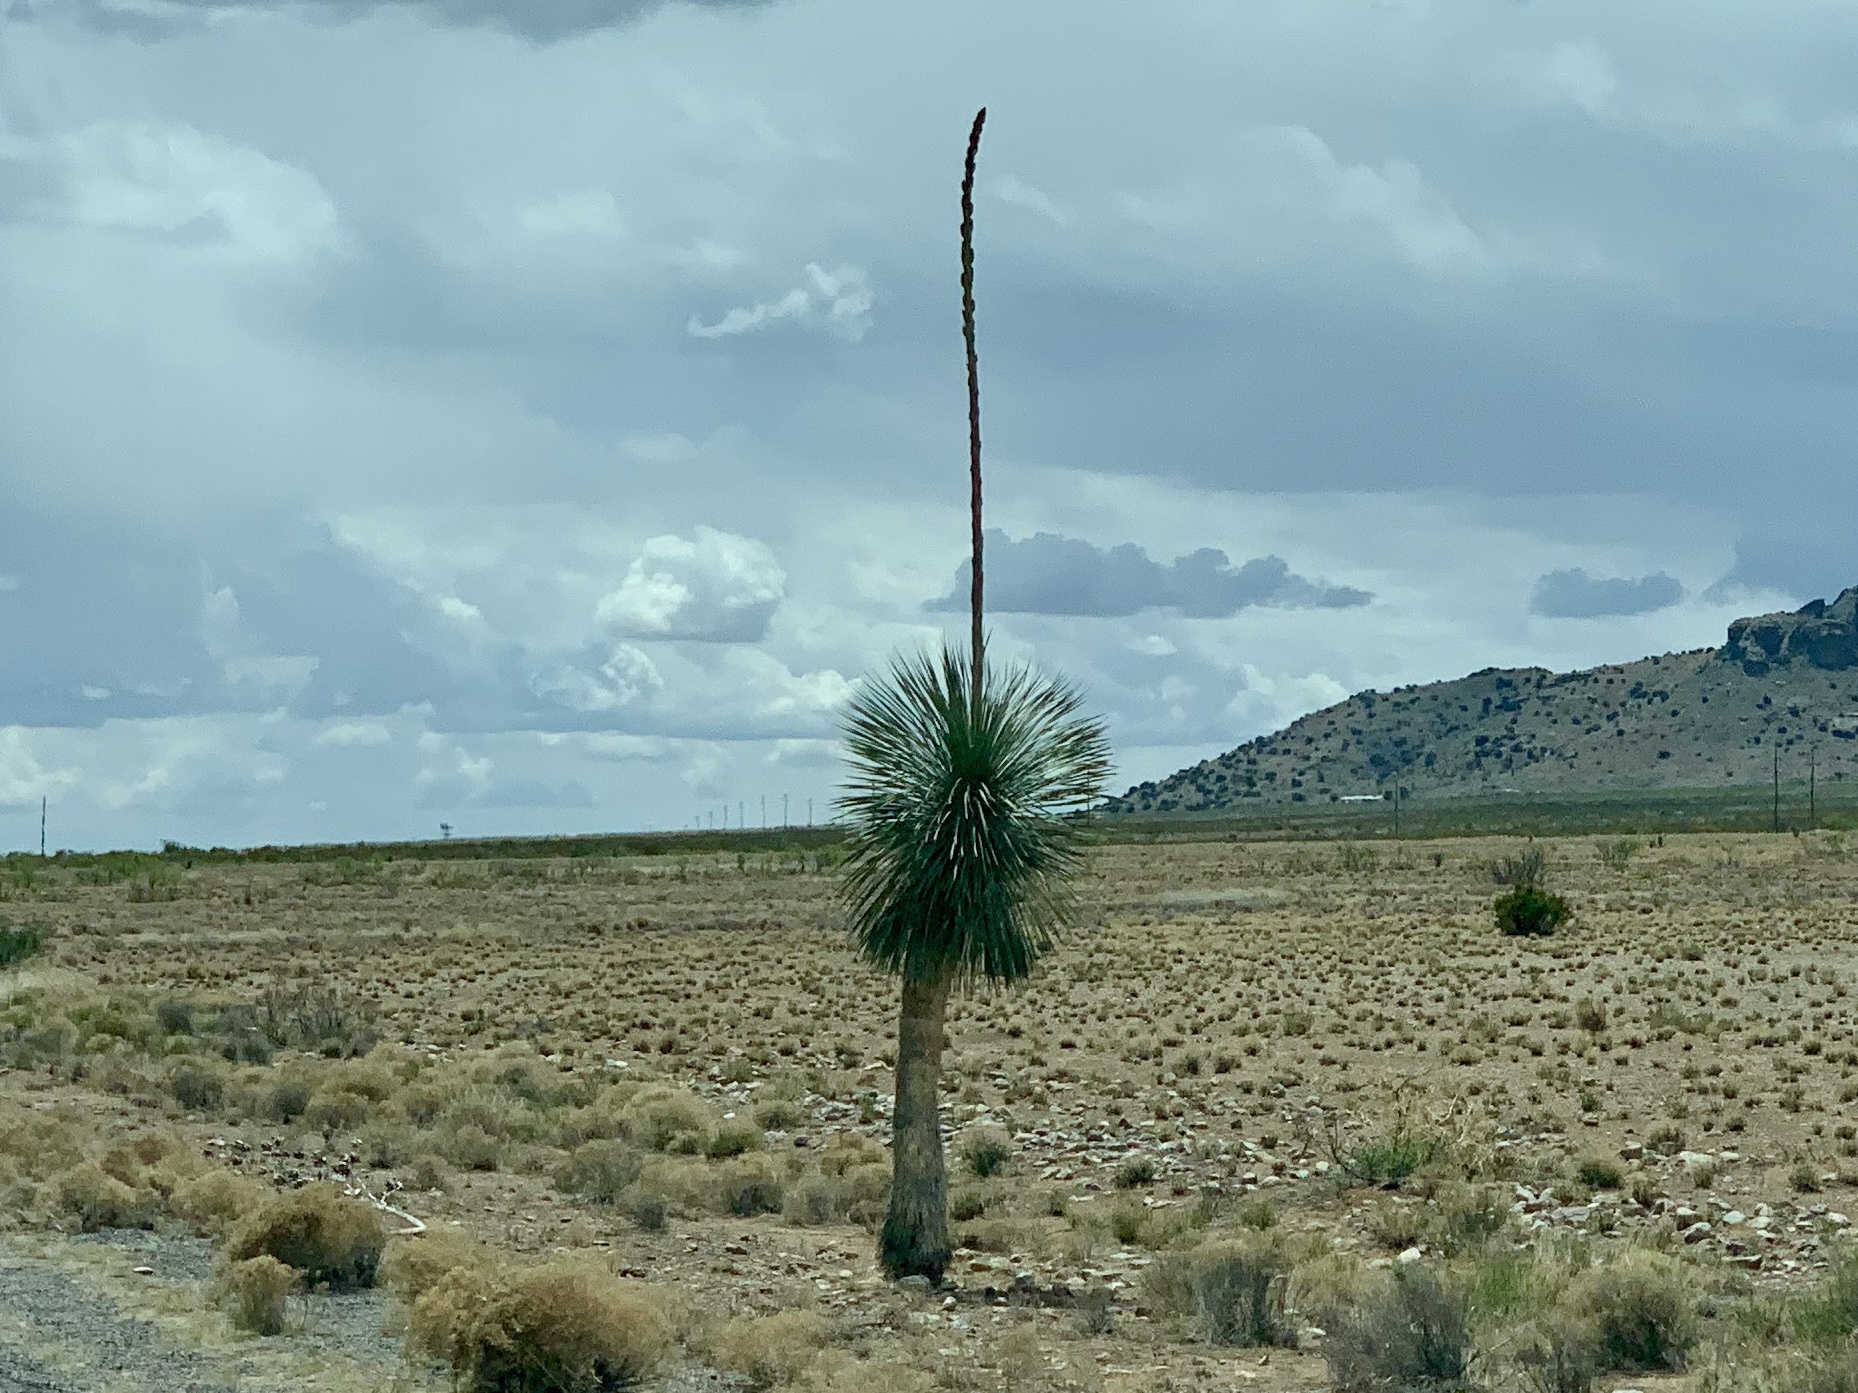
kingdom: Plantae
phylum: Tracheophyta
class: Liliopsida
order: Asparagales
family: Asparagaceae
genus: Yucca
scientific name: Yucca elata
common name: Palmella
